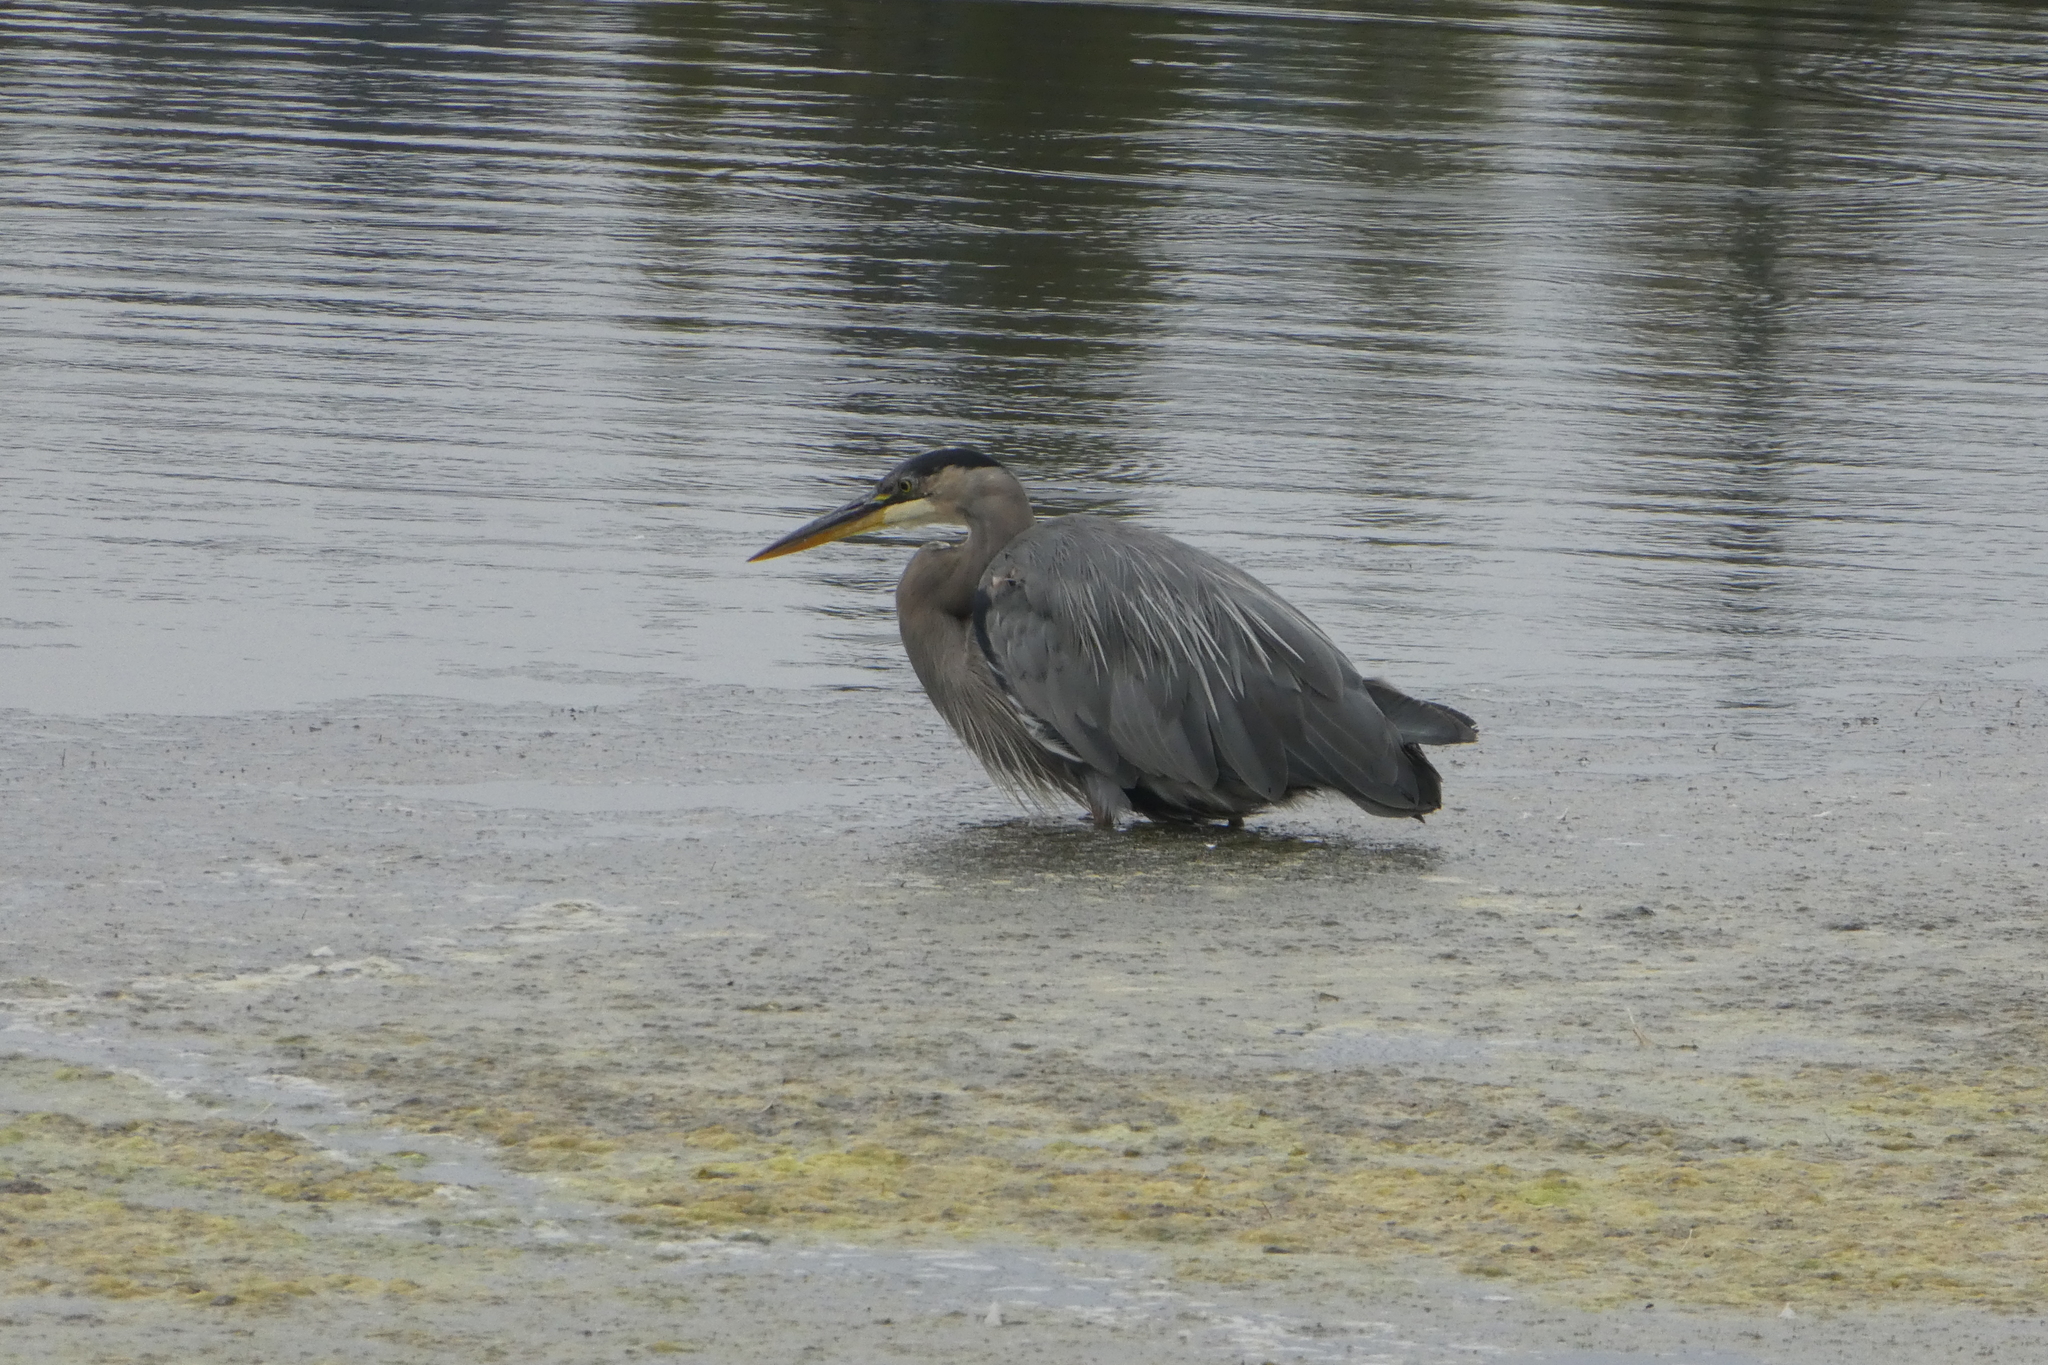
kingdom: Animalia
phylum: Chordata
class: Aves
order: Pelecaniformes
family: Ardeidae
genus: Ardea
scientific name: Ardea herodias
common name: Great blue heron
